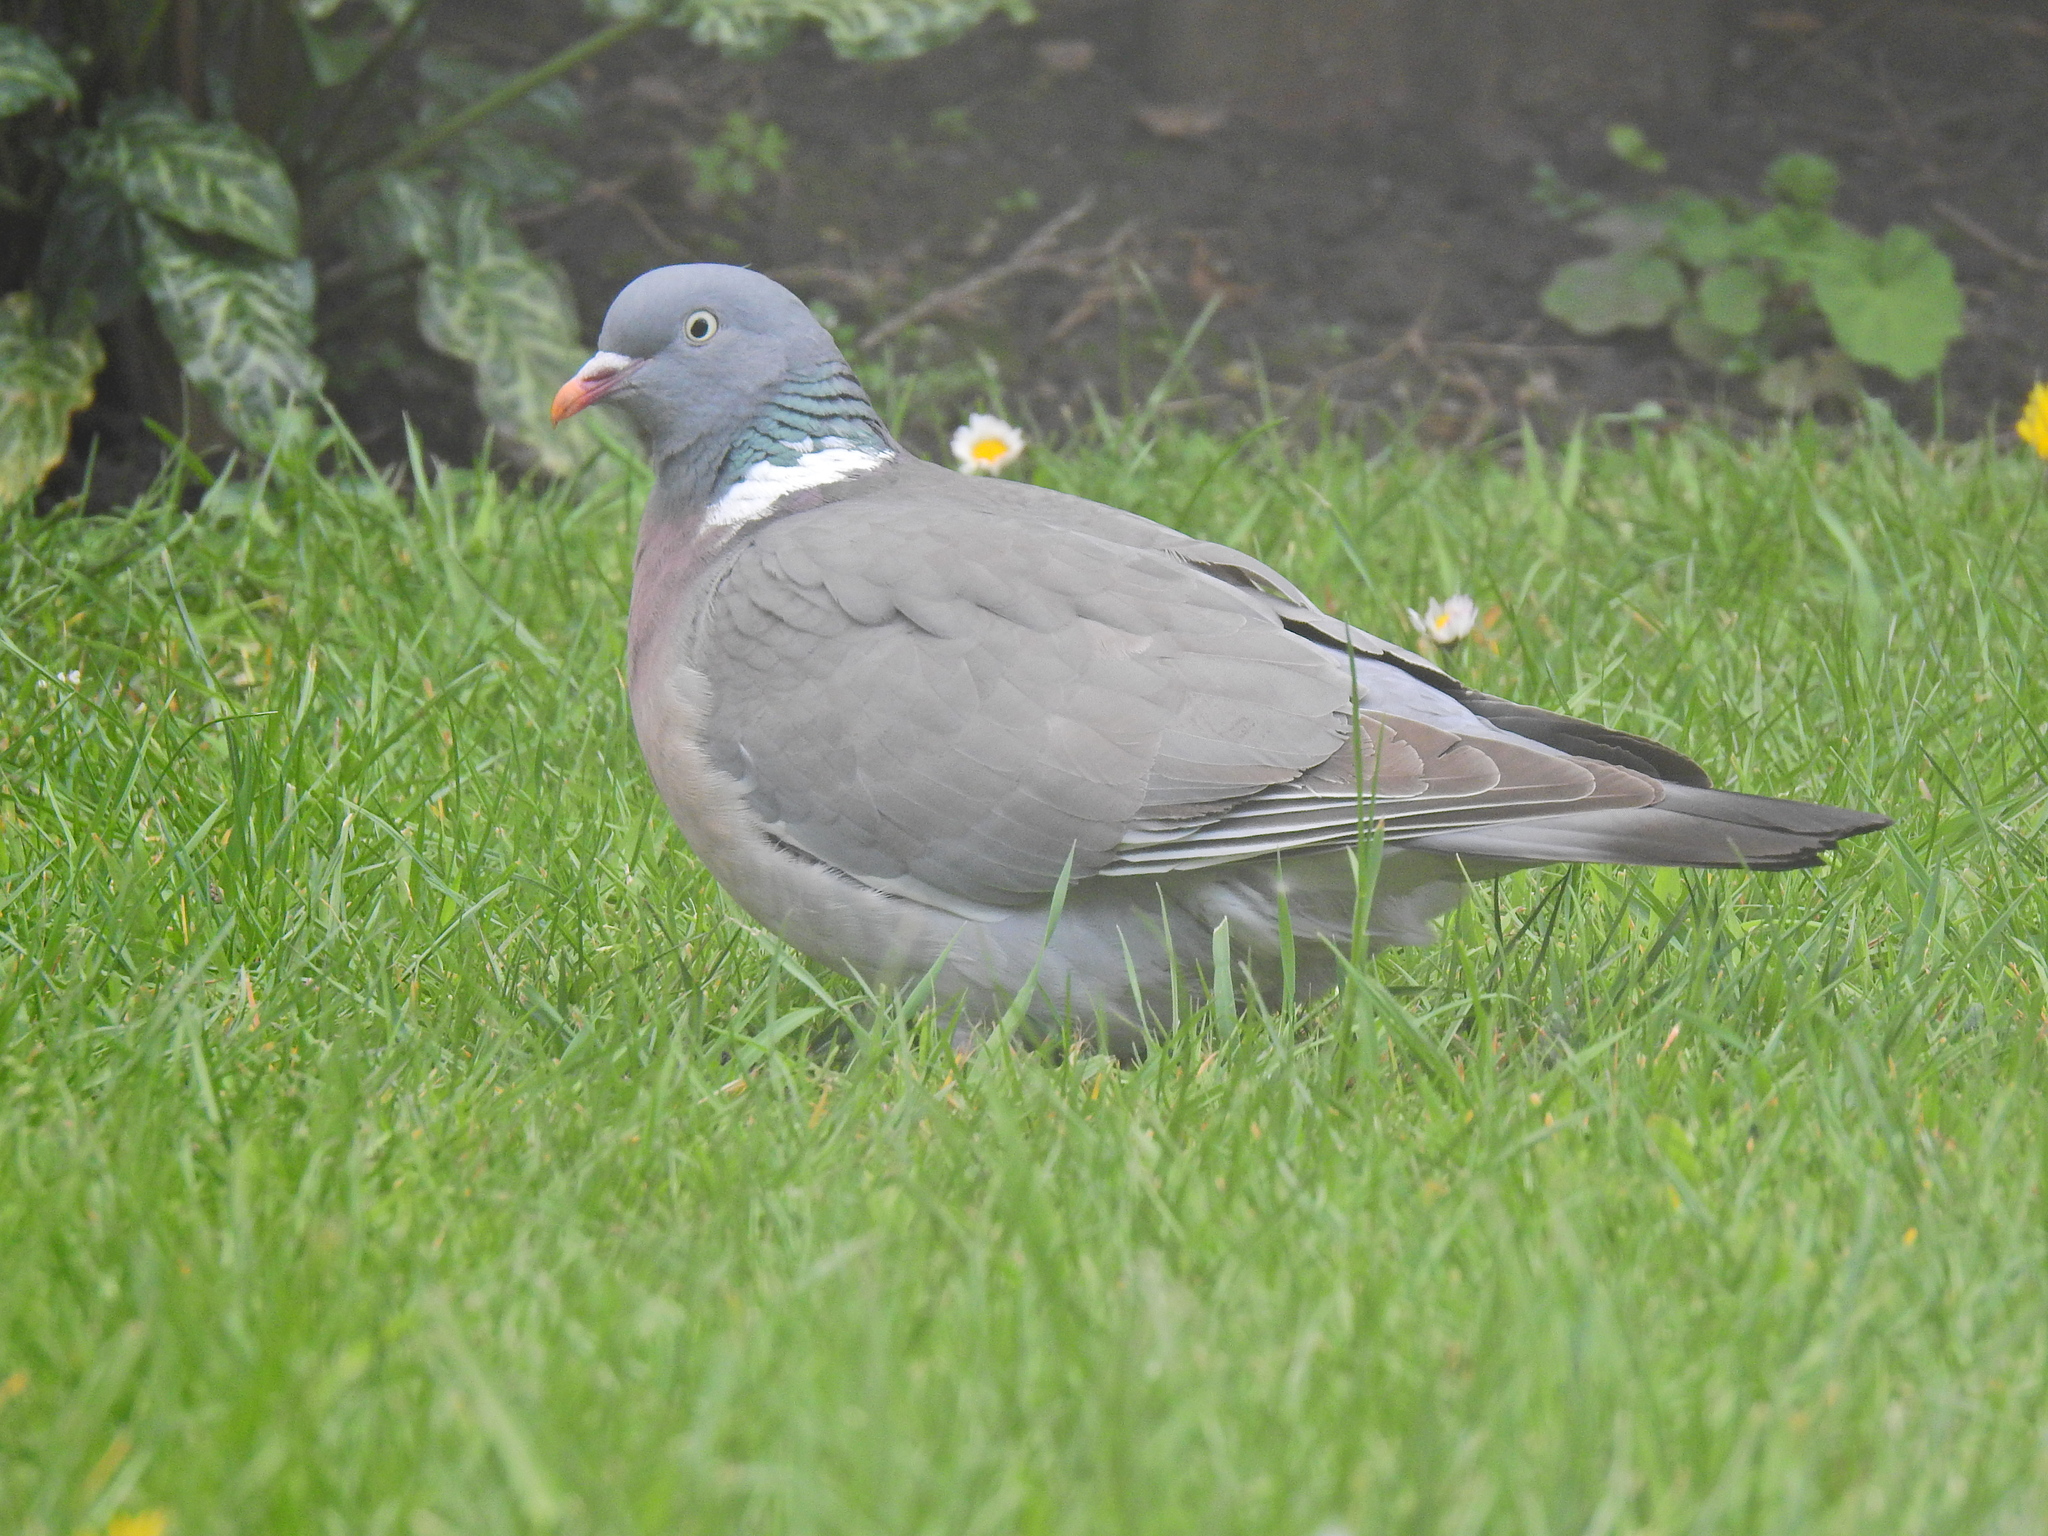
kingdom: Animalia
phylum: Chordata
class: Aves
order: Columbiformes
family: Columbidae
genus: Columba
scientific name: Columba palumbus
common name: Common wood pigeon
